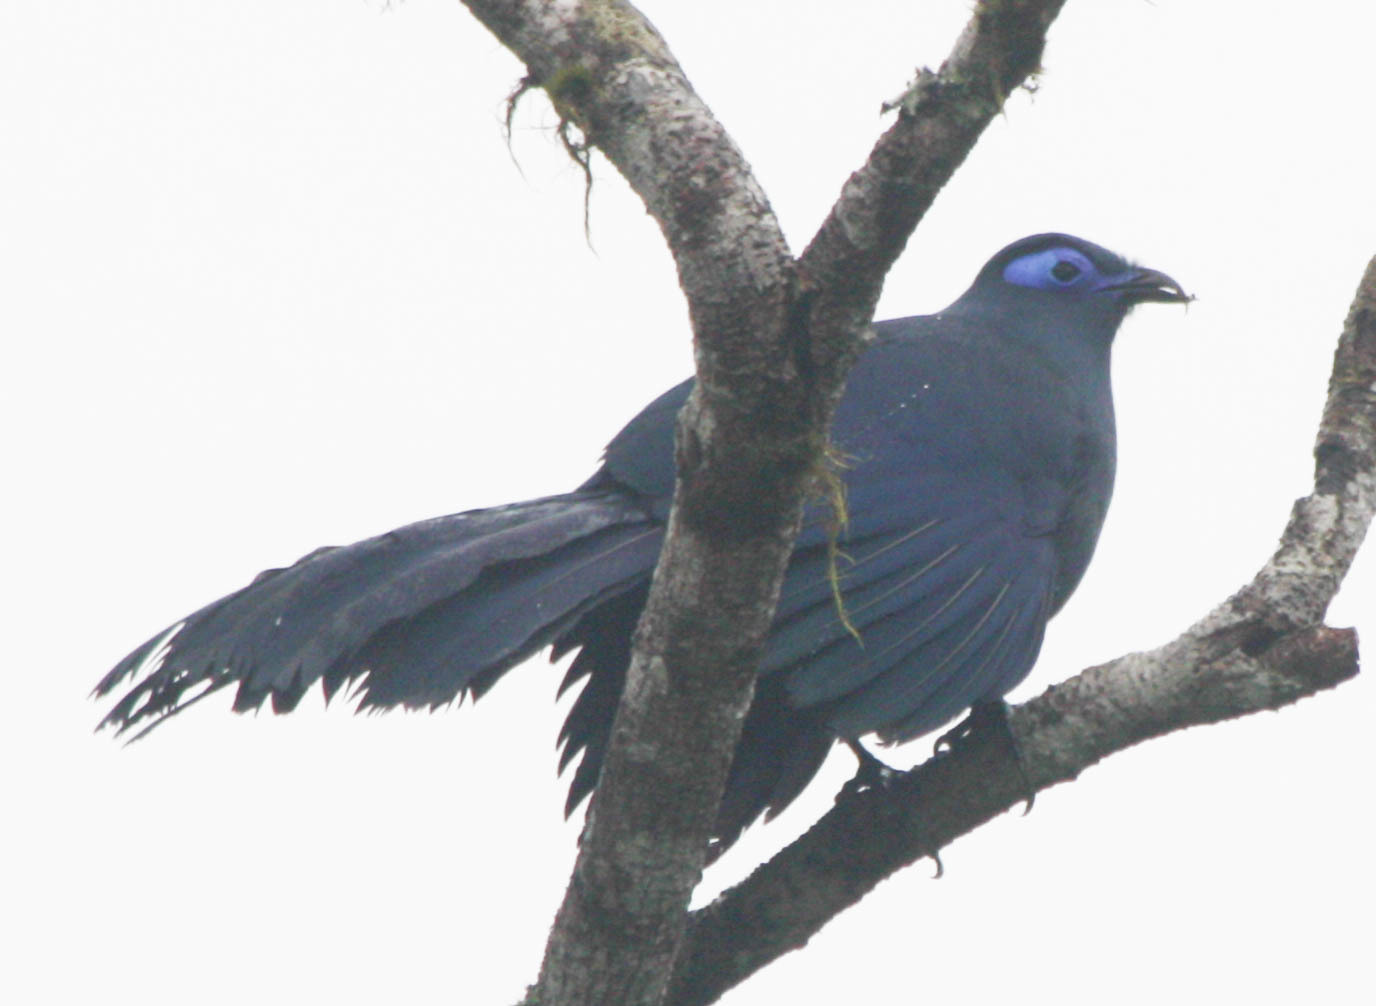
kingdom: Animalia
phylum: Chordata
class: Aves
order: Cuculiformes
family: Cuculidae
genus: Coua
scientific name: Coua caerulea
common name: Blue coua
